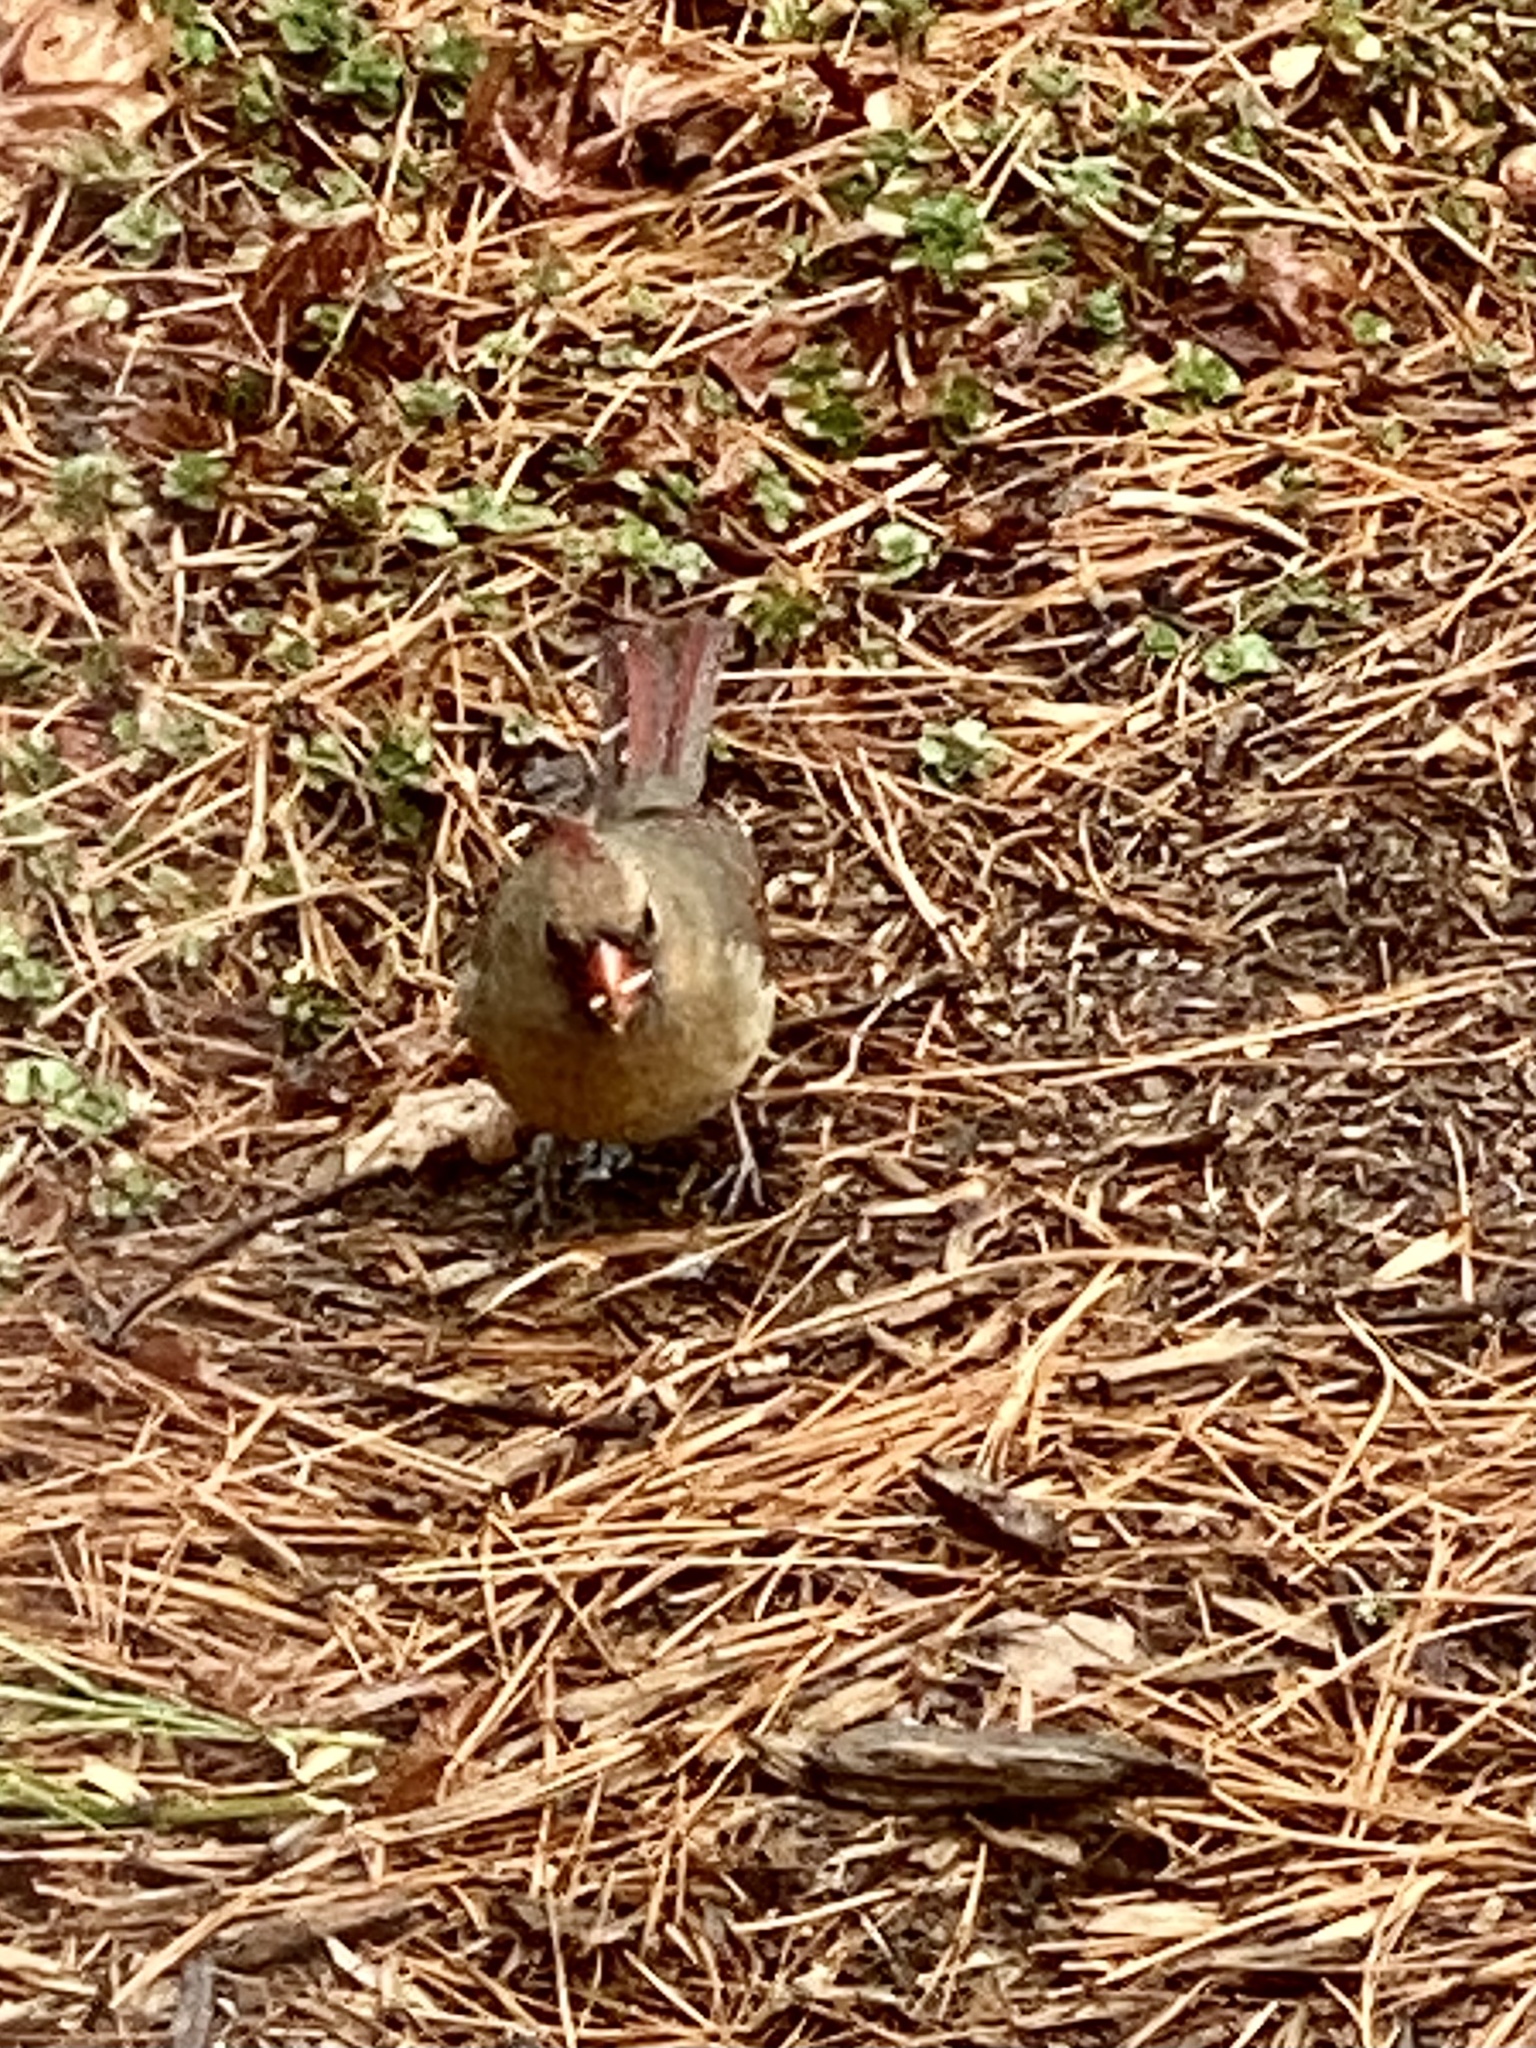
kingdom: Animalia
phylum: Chordata
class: Aves
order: Passeriformes
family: Cardinalidae
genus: Cardinalis
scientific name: Cardinalis cardinalis
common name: Northern cardinal
